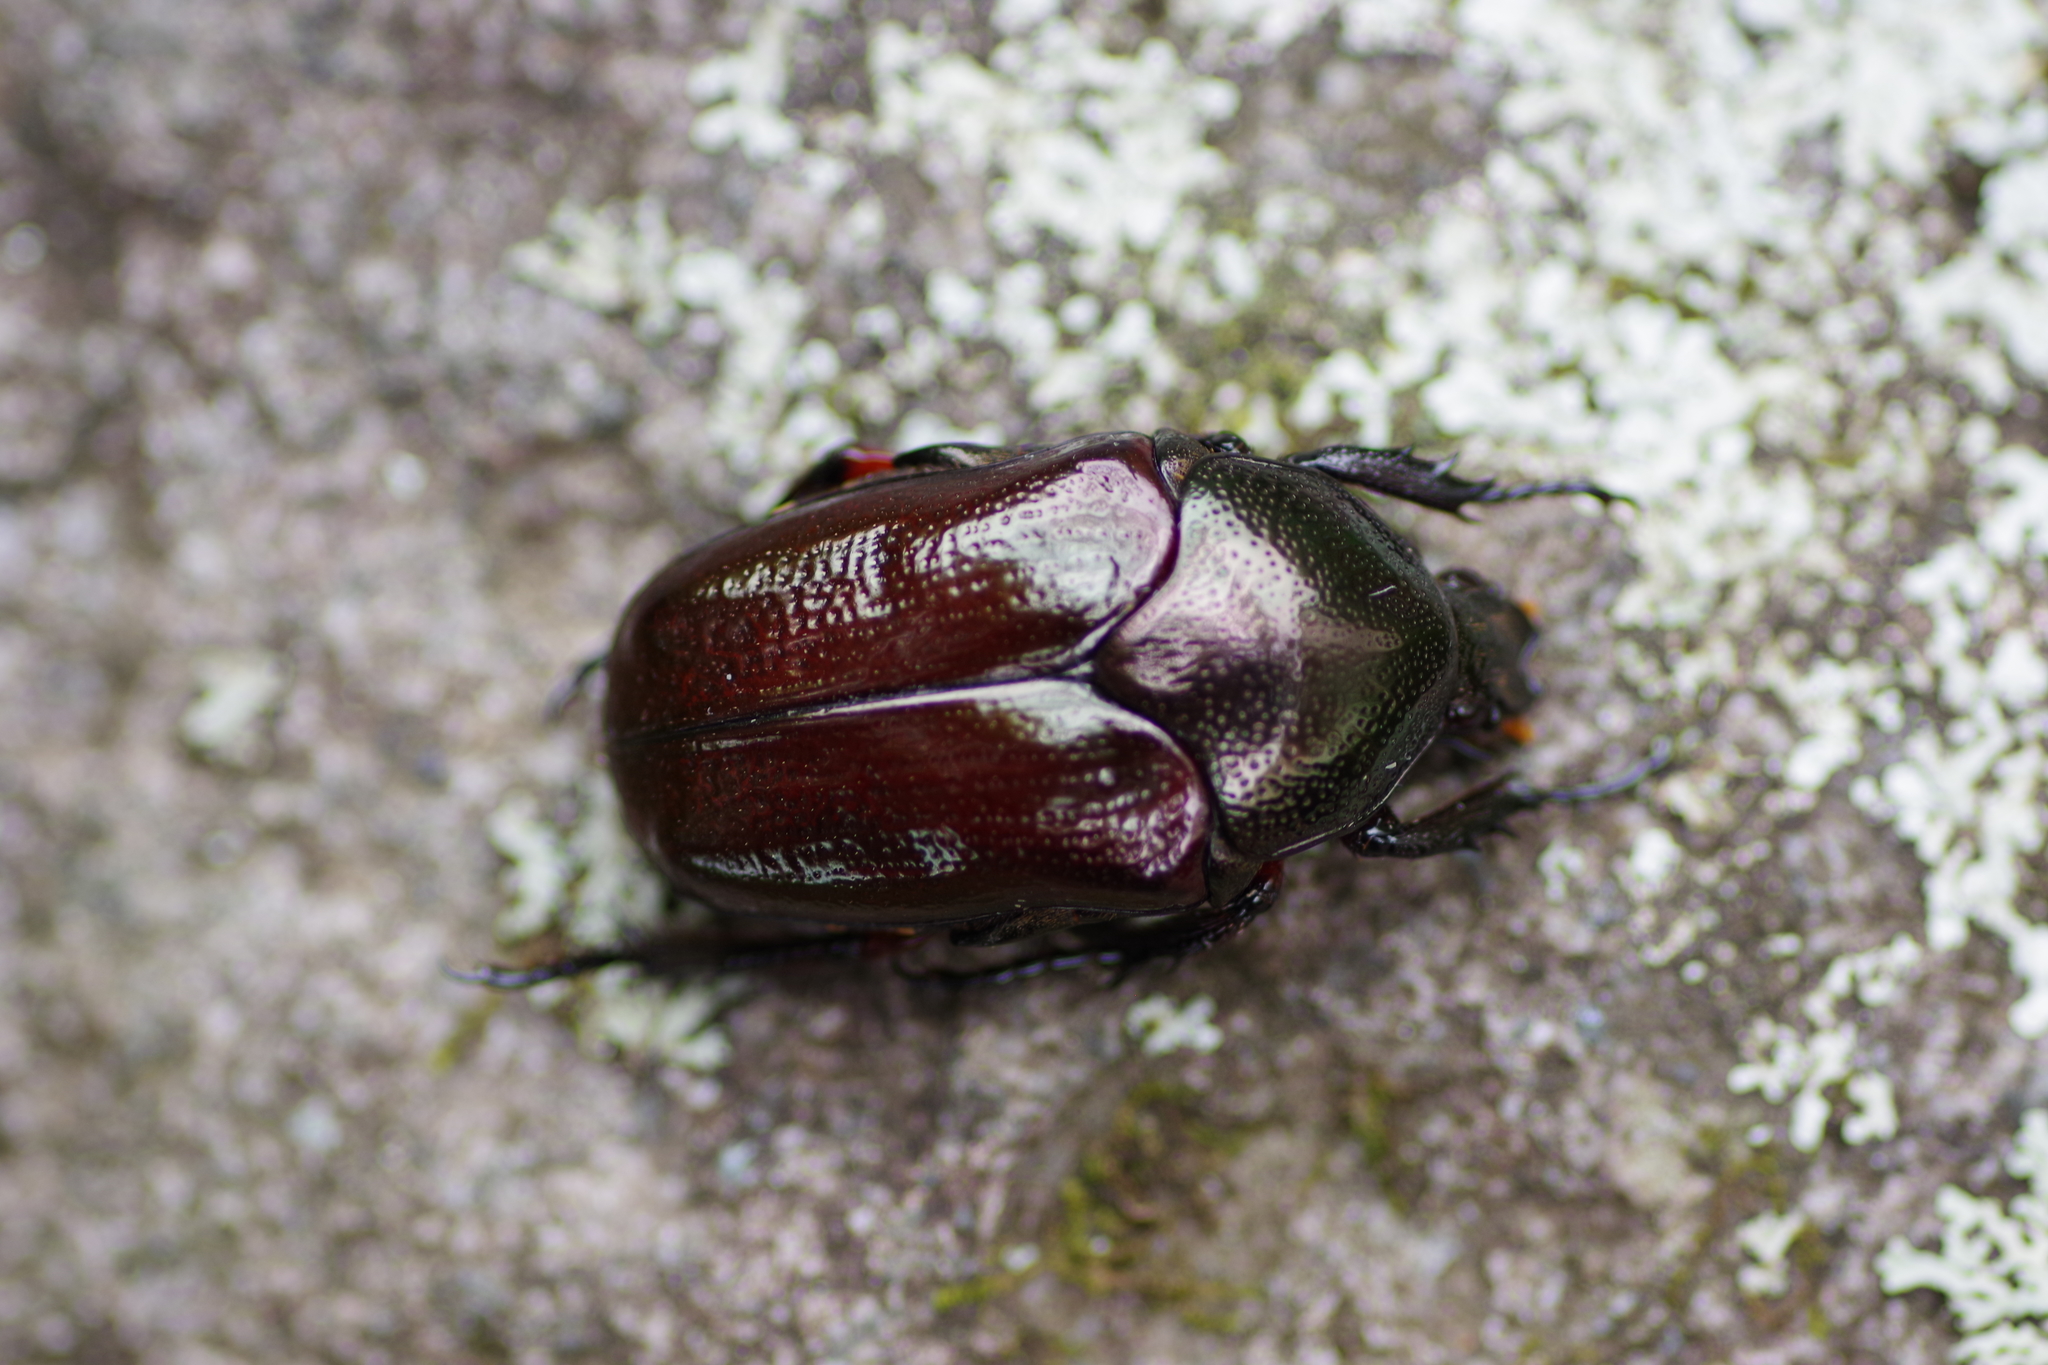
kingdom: Animalia
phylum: Arthropoda
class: Insecta
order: Coleoptera
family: Scarabaeidae
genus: Amithao
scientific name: Amithao metallicus
